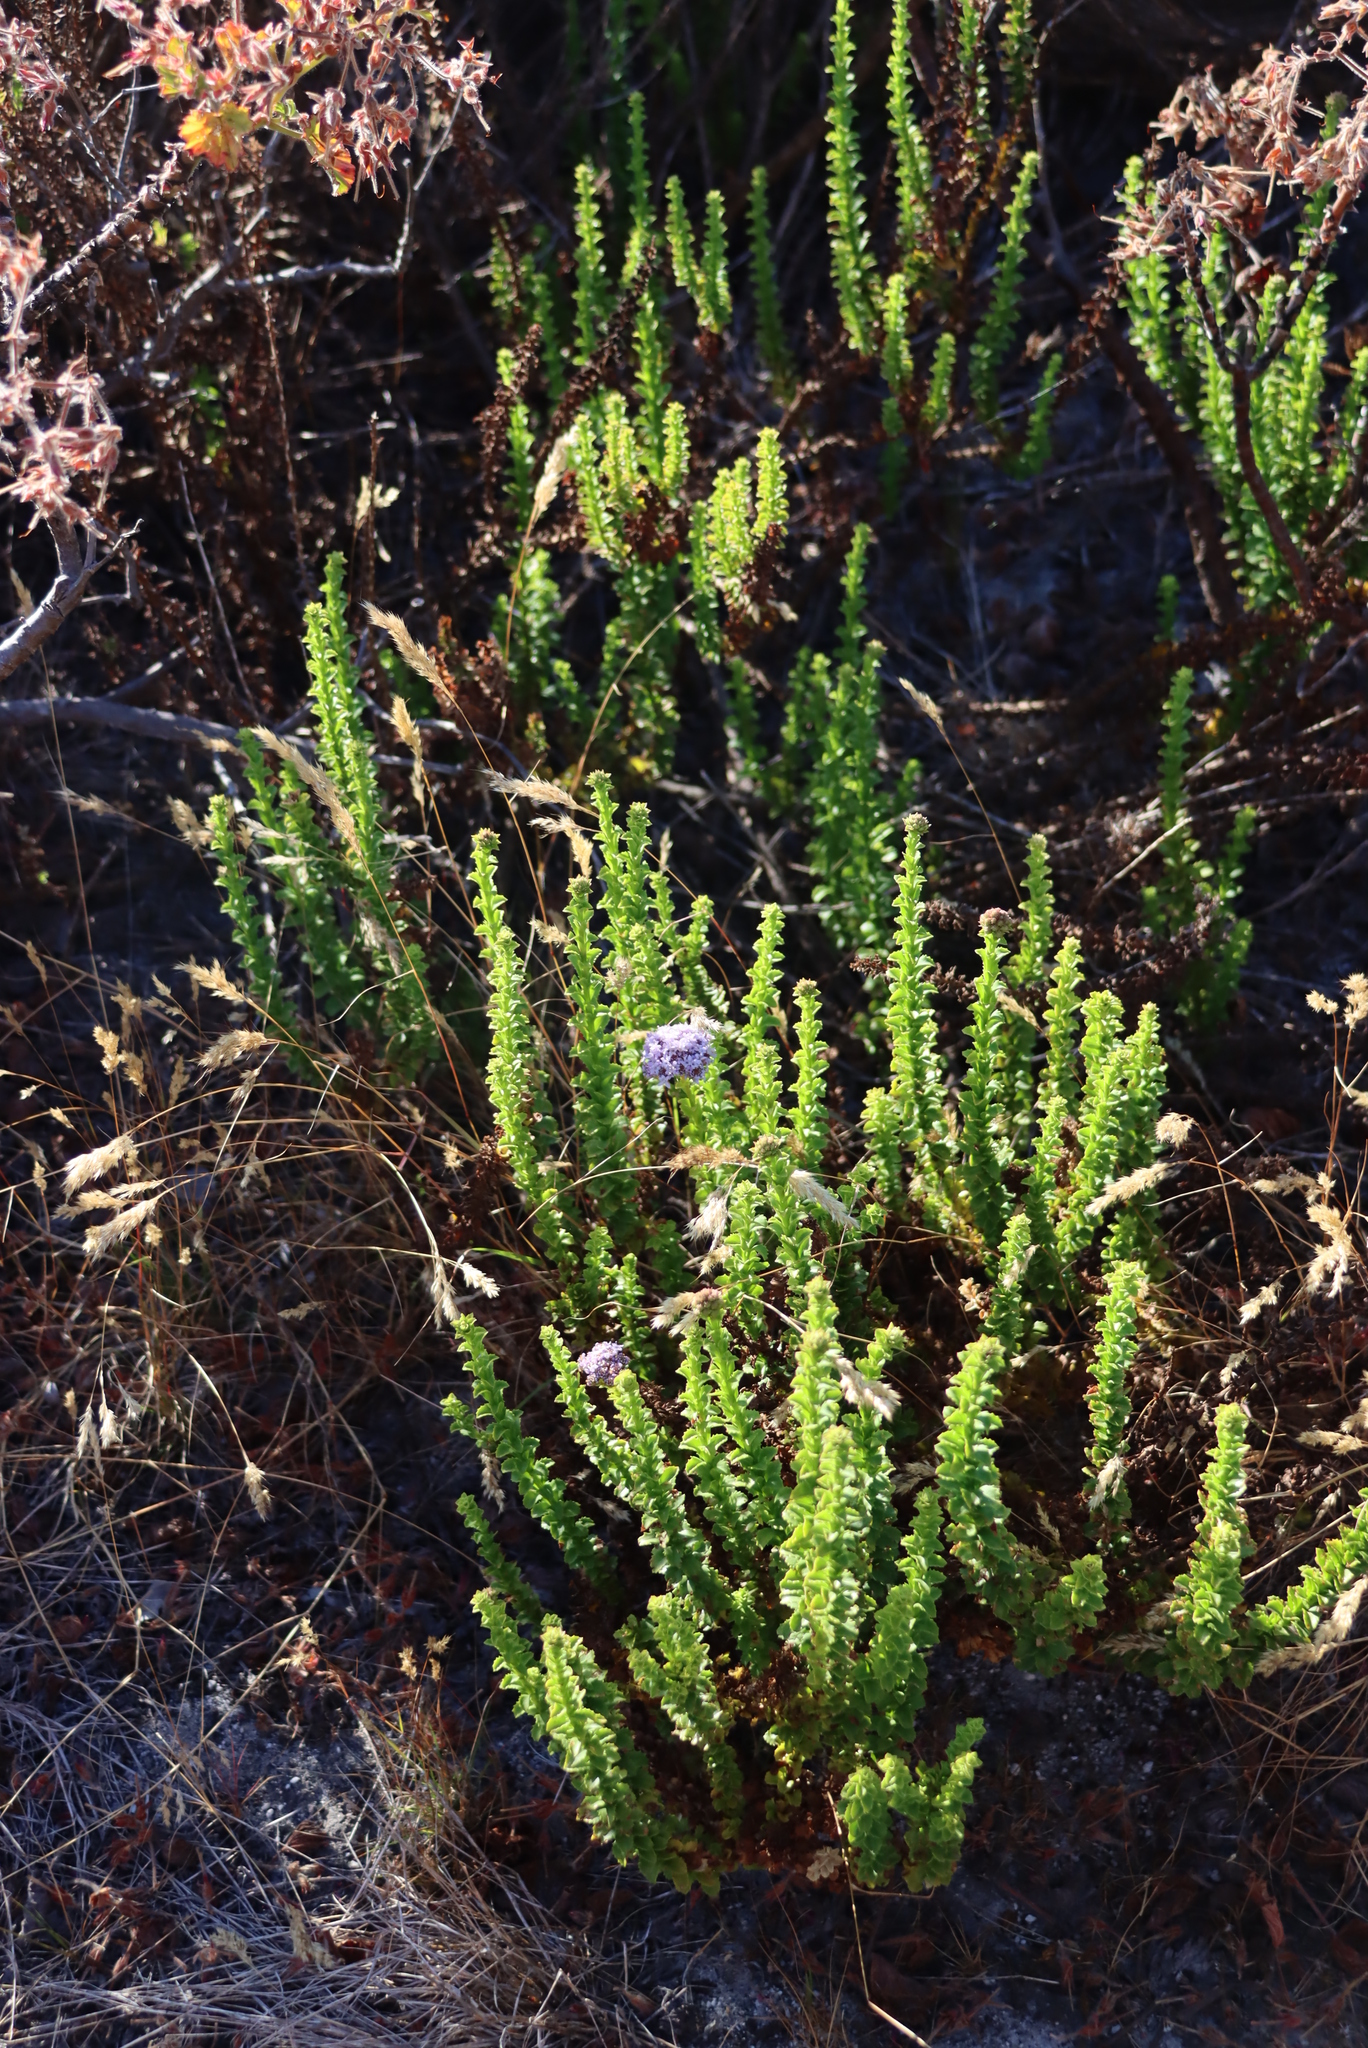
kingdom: Plantae
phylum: Tracheophyta
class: Magnoliopsida
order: Lamiales
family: Scrophulariaceae
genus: Pseudoselago
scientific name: Pseudoselago serrata
